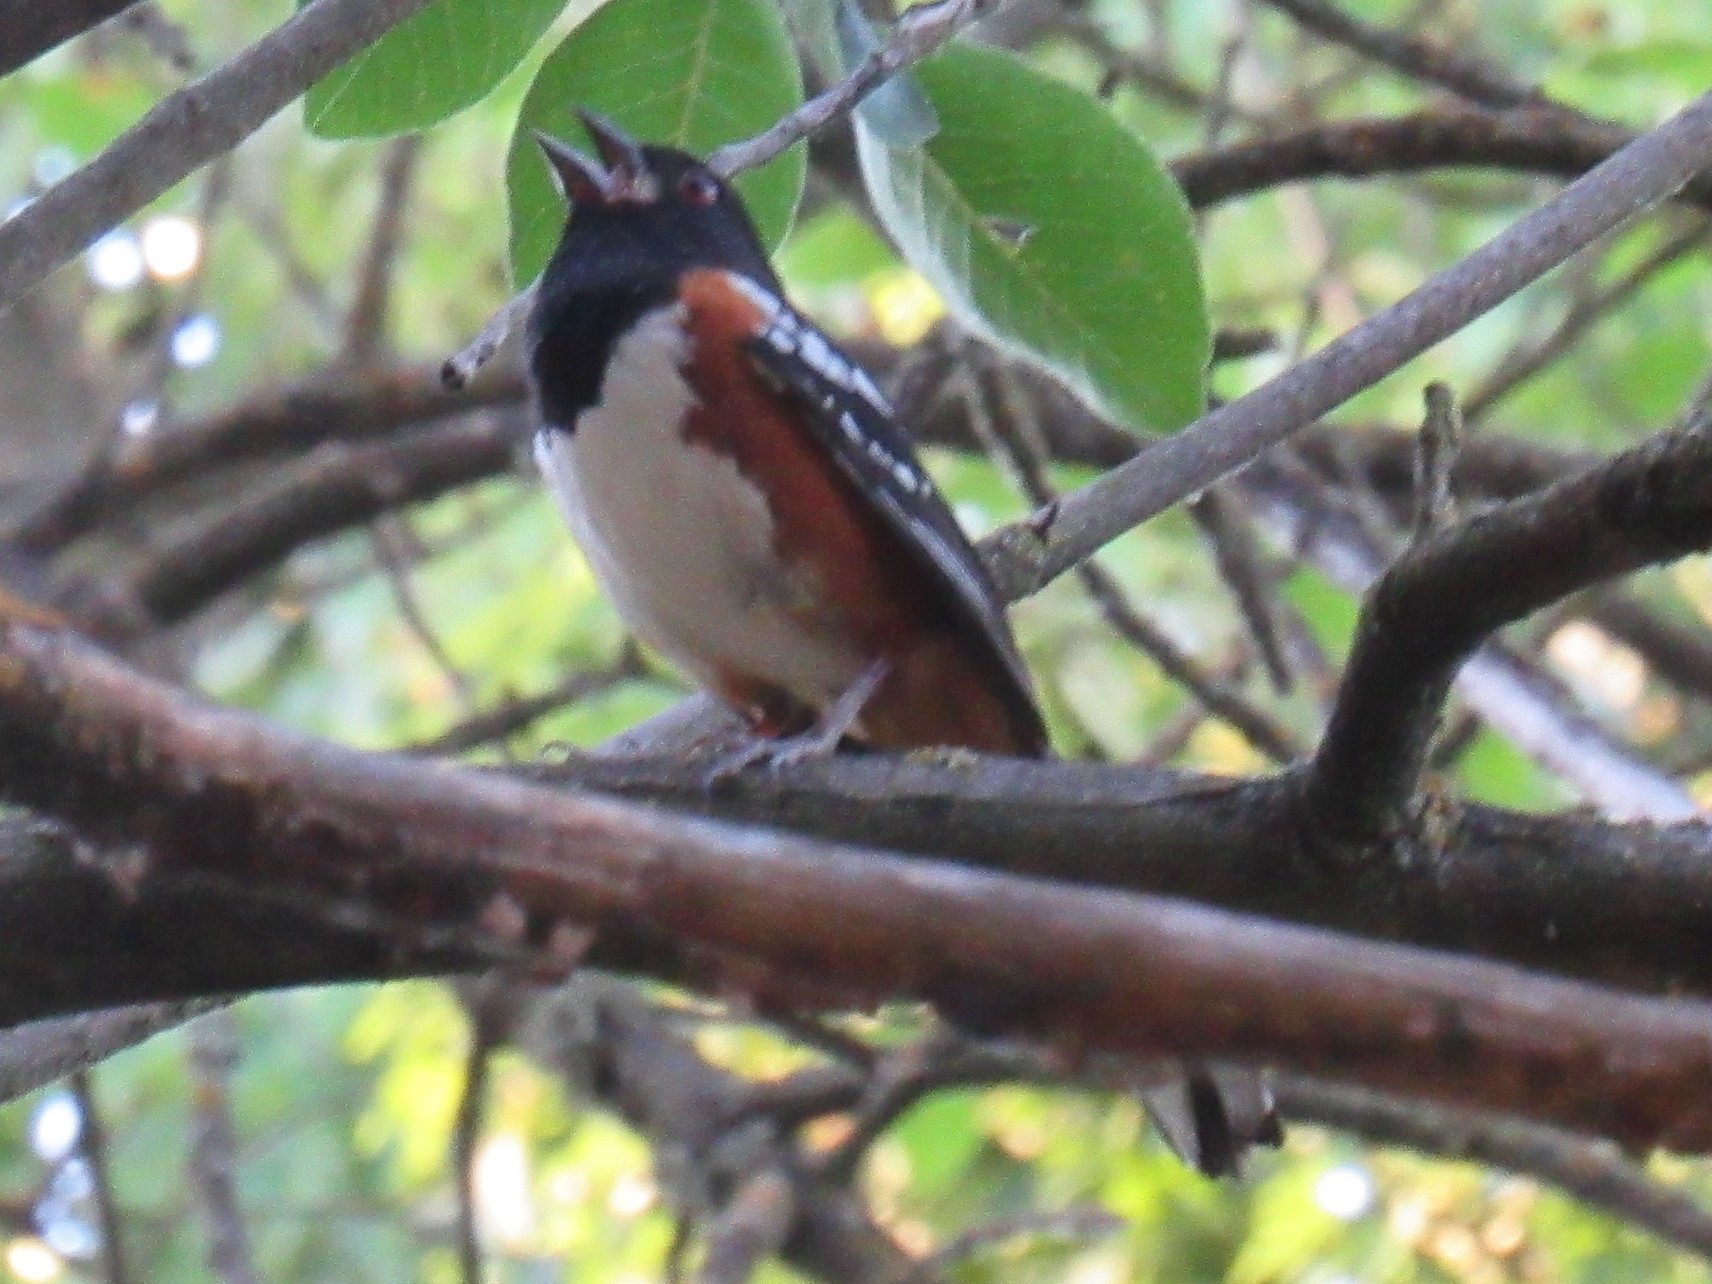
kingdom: Animalia
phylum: Chordata
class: Aves
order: Passeriformes
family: Passerellidae
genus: Pipilo
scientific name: Pipilo maculatus
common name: Spotted towhee
